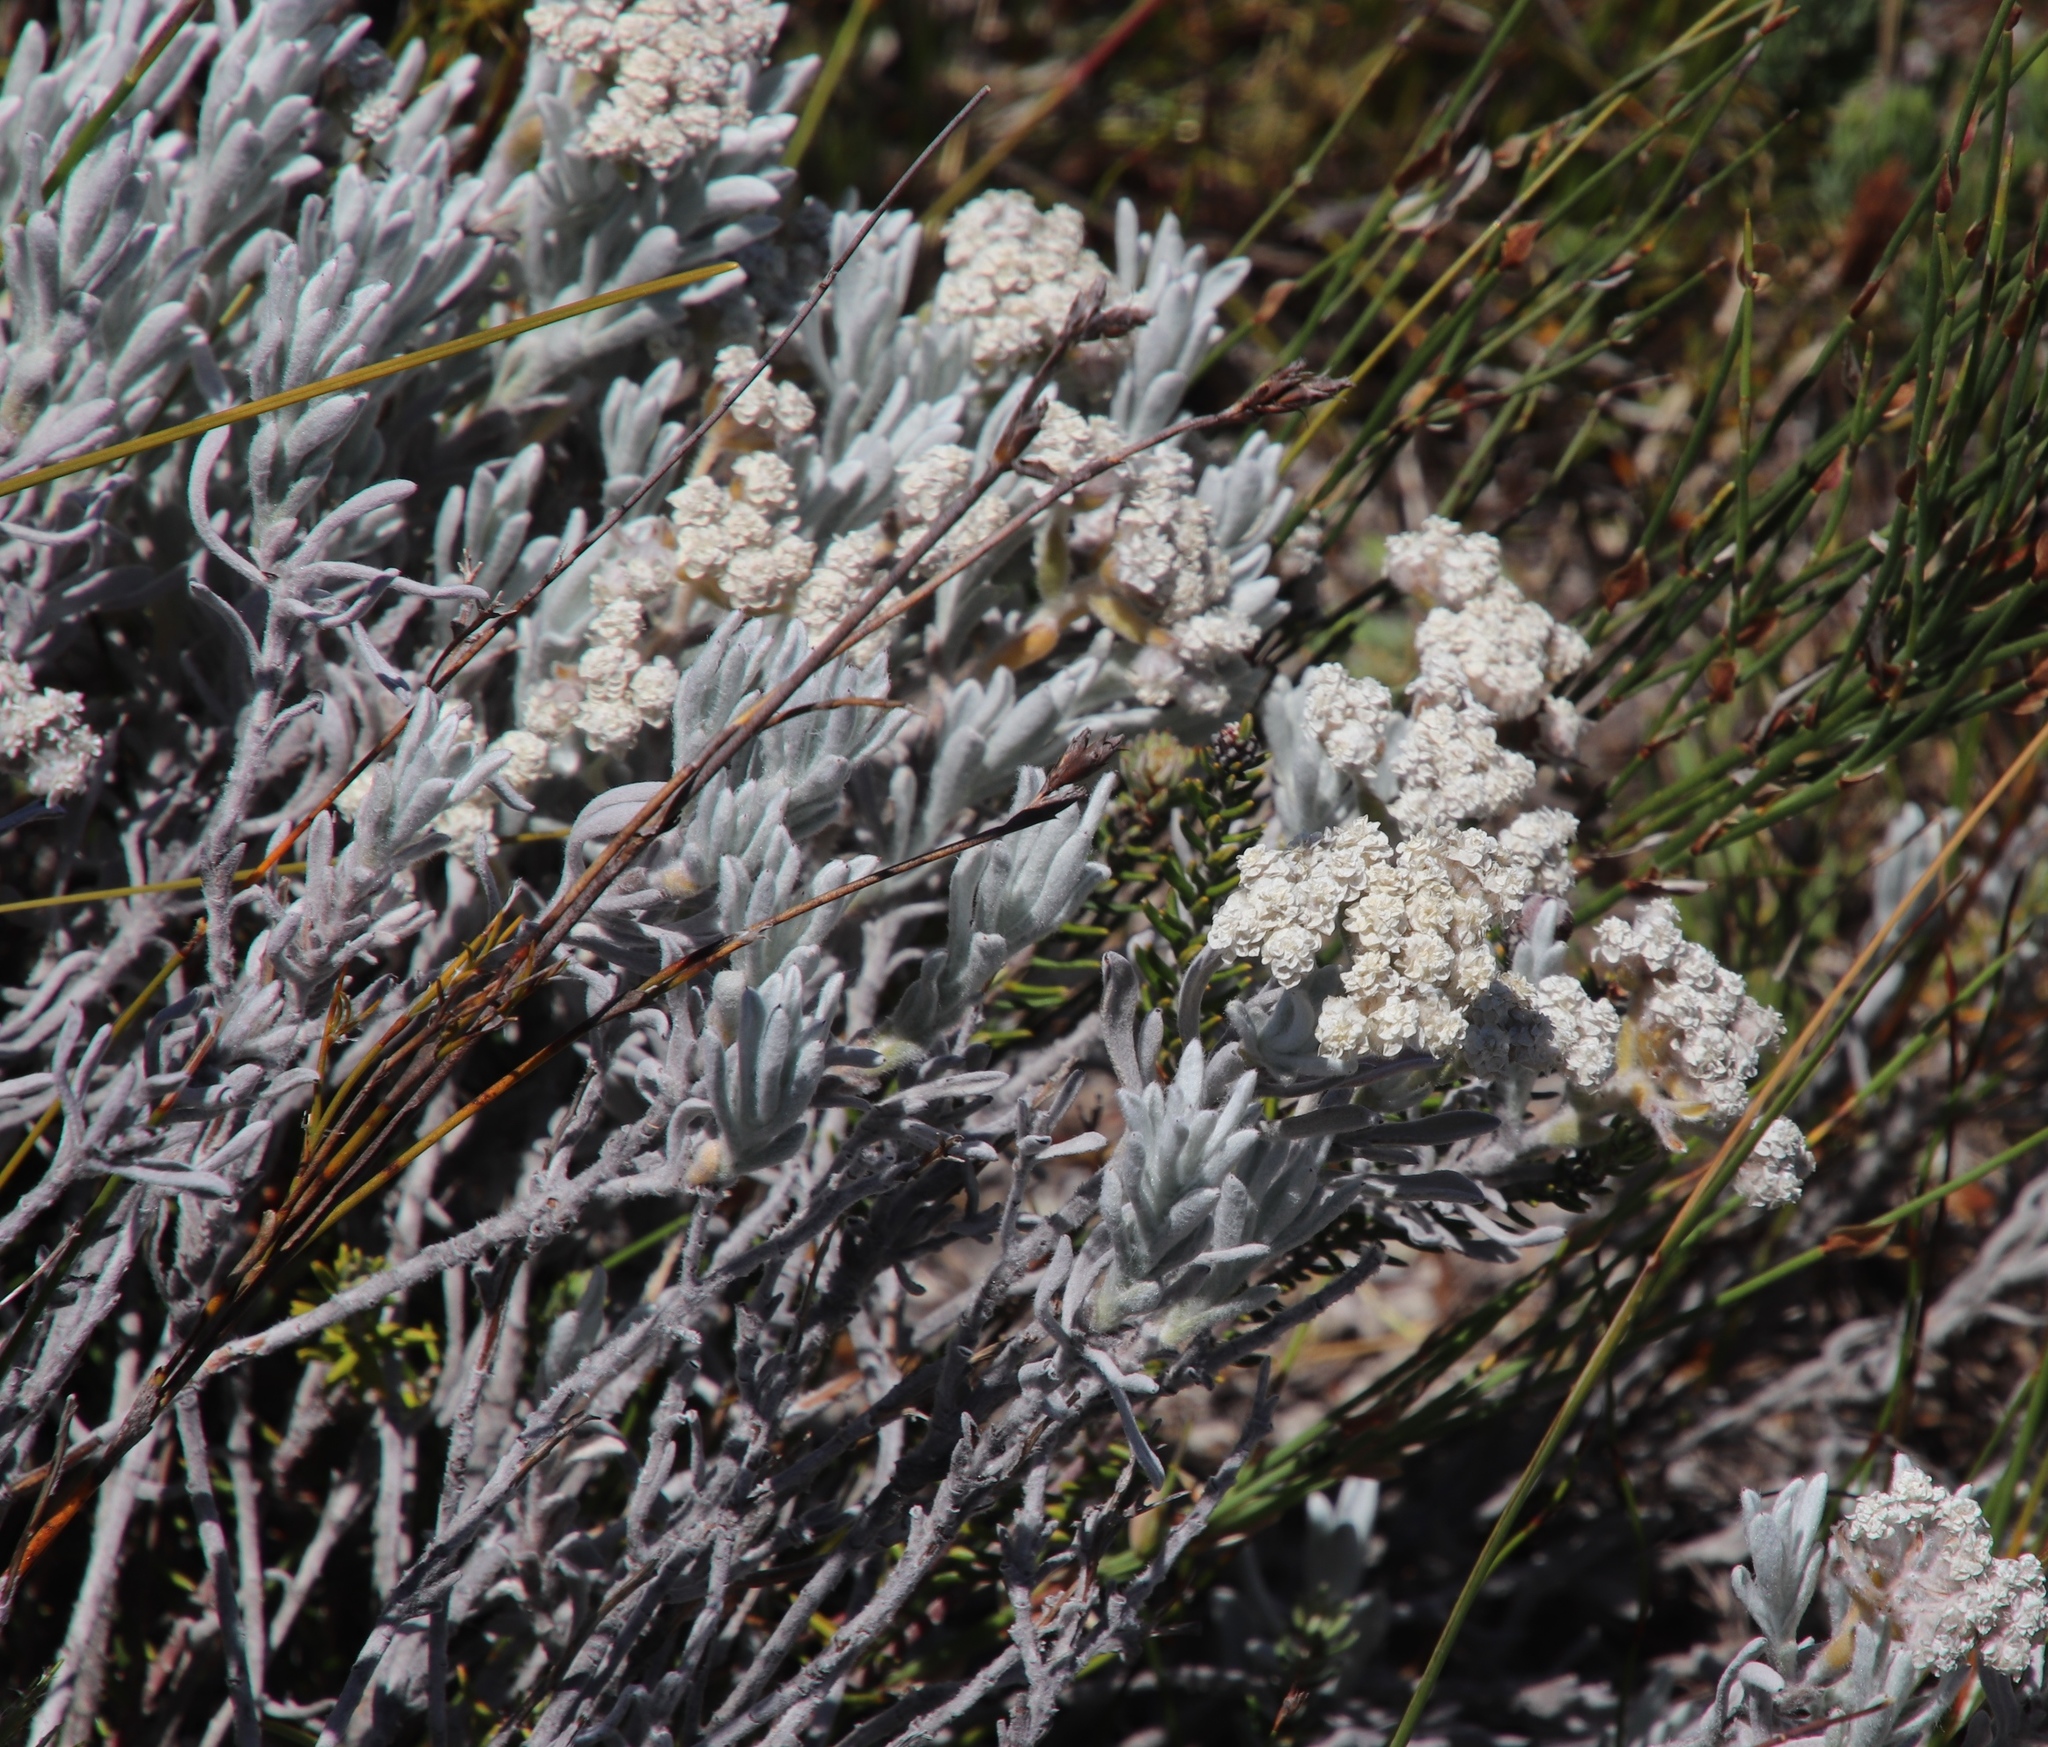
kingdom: Plantae
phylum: Tracheophyta
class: Magnoliopsida
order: Asterales
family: Asteraceae
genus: Petalacte
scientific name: Petalacte coronata
